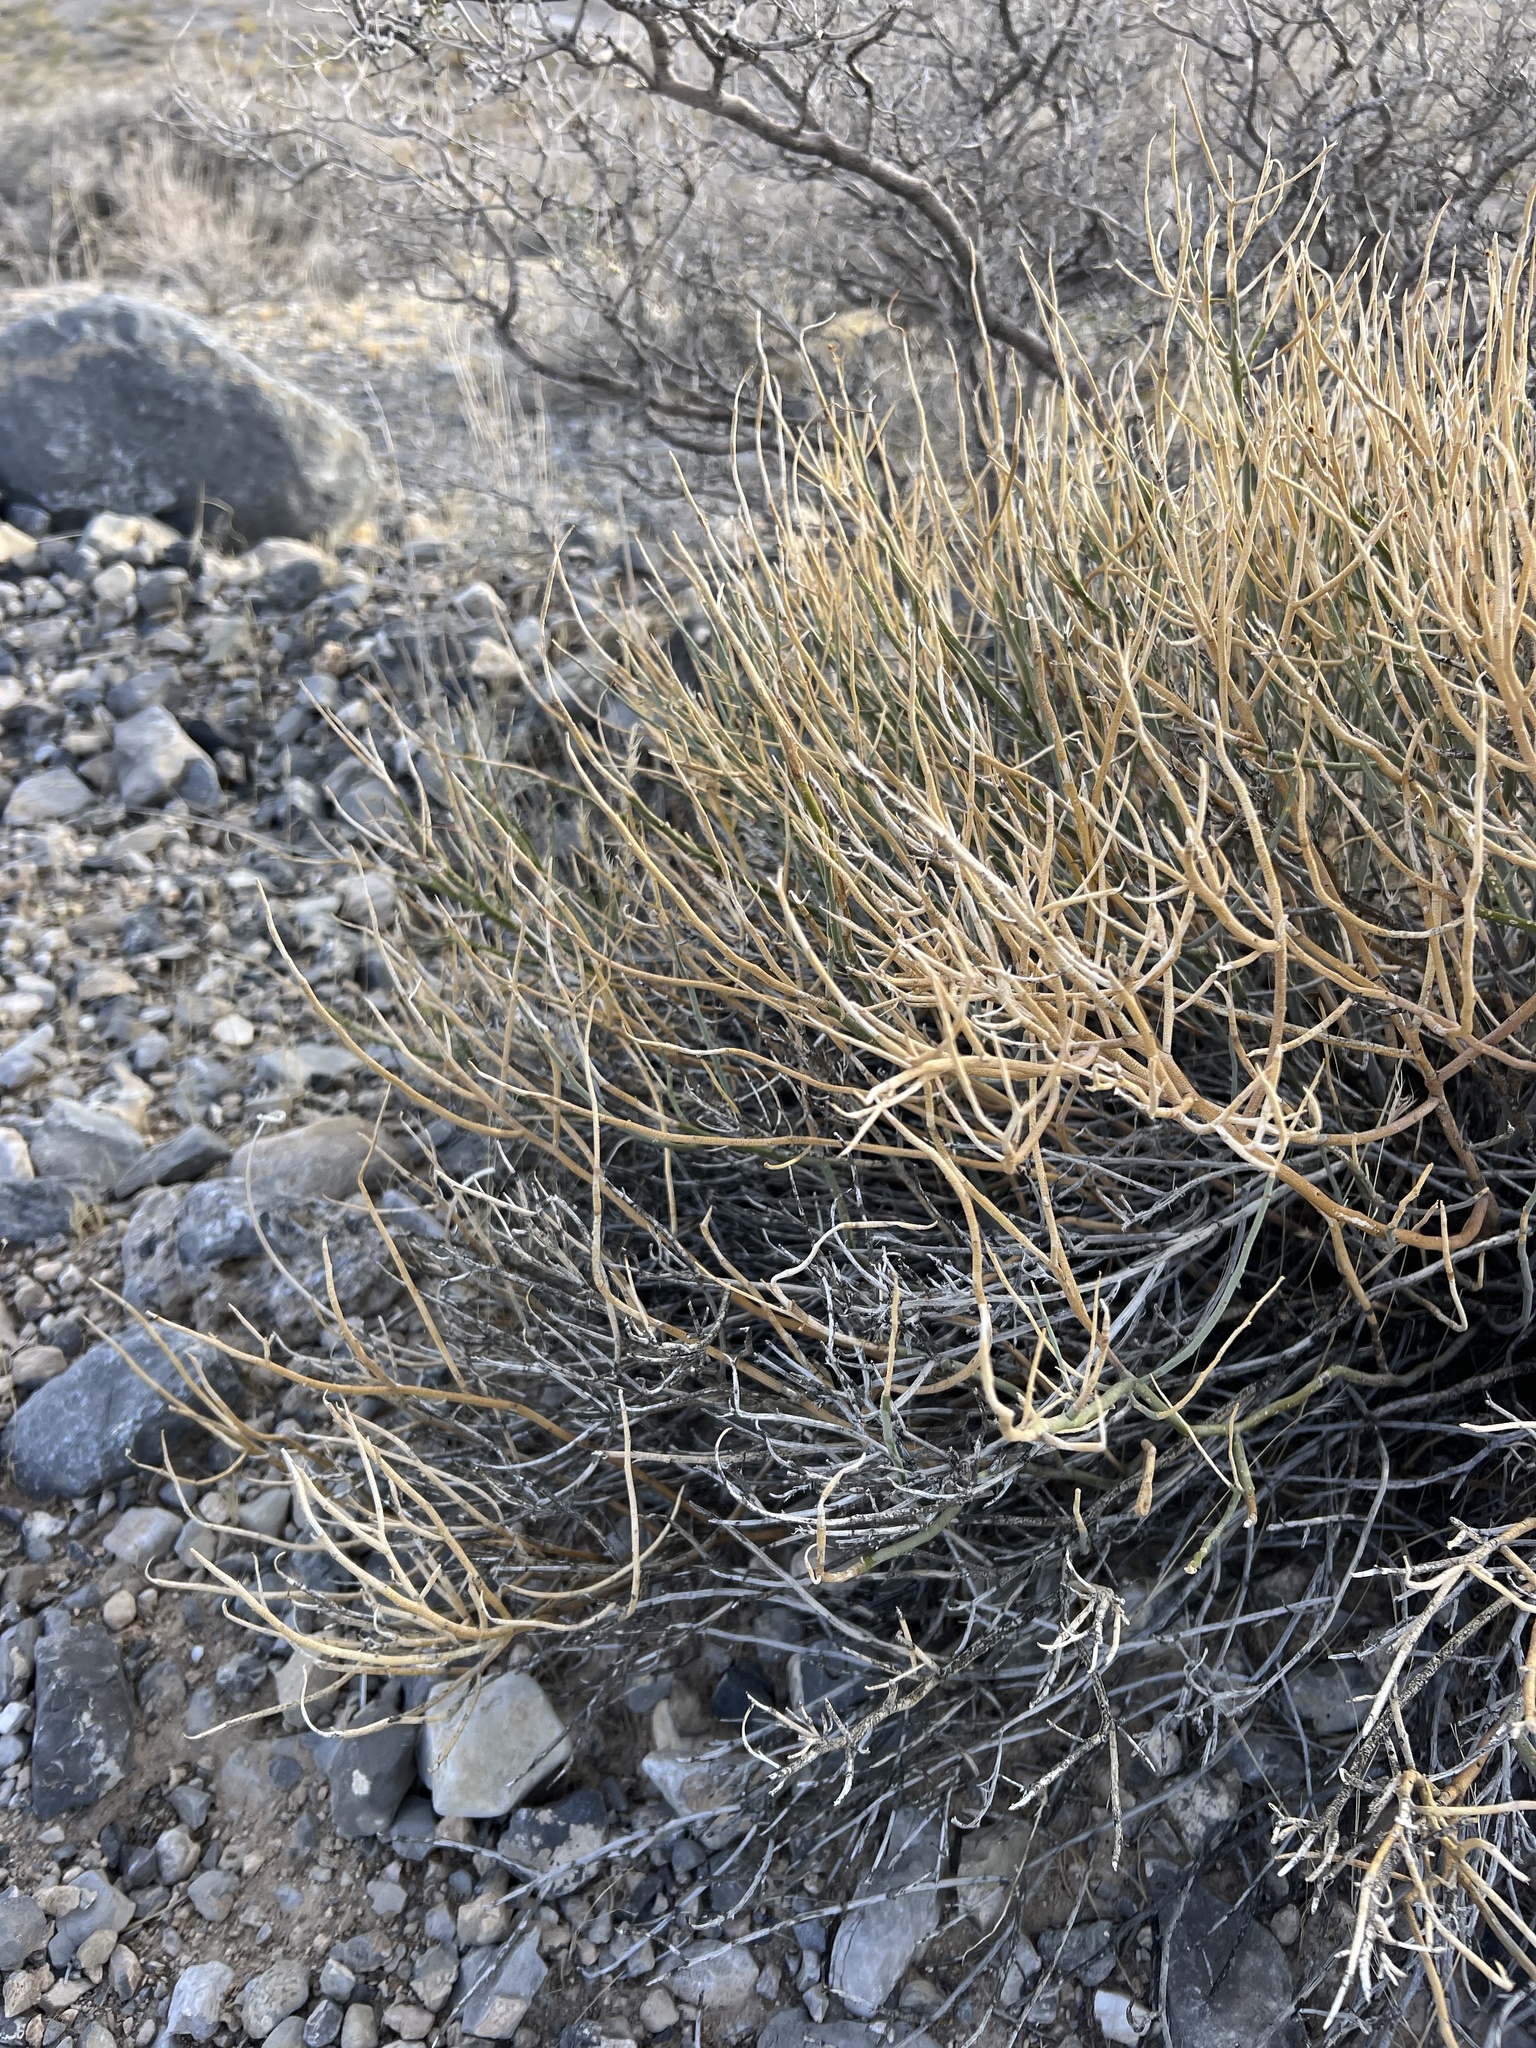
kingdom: Plantae
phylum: Tracheophyta
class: Magnoliopsida
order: Sapindales
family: Rutaceae
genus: Thamnosma
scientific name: Thamnosma montana
